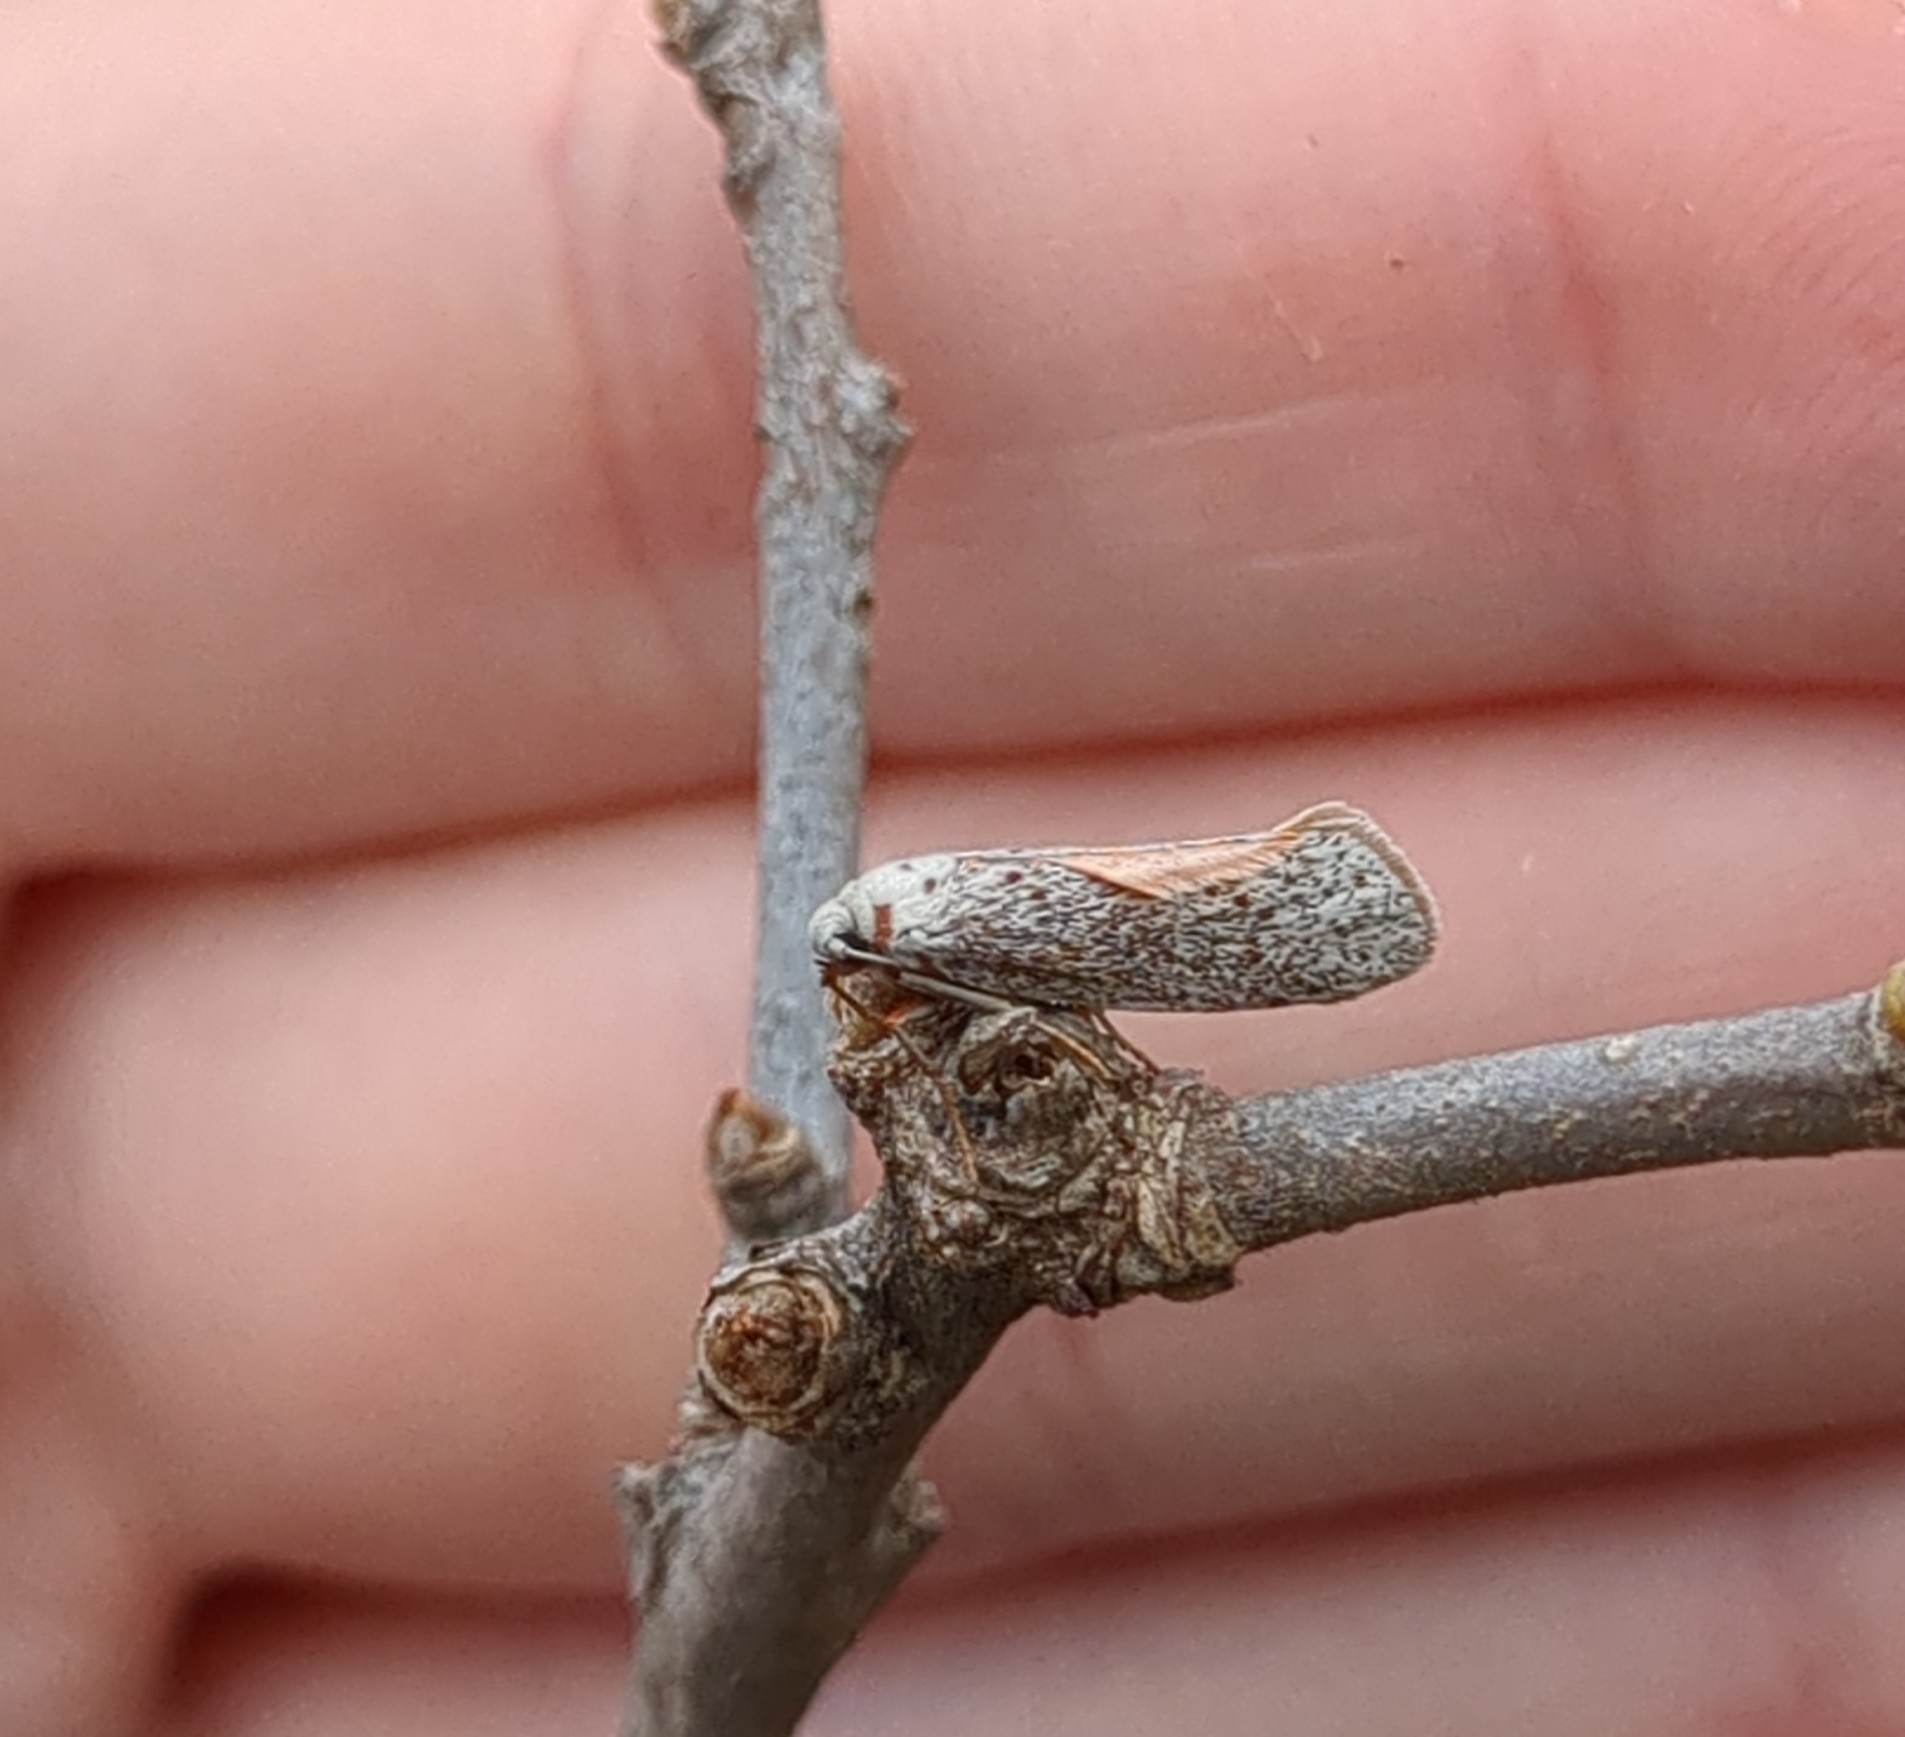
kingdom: Animalia
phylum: Arthropoda
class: Insecta
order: Lepidoptera
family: Lacturidae
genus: Lactura
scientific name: Lactura
